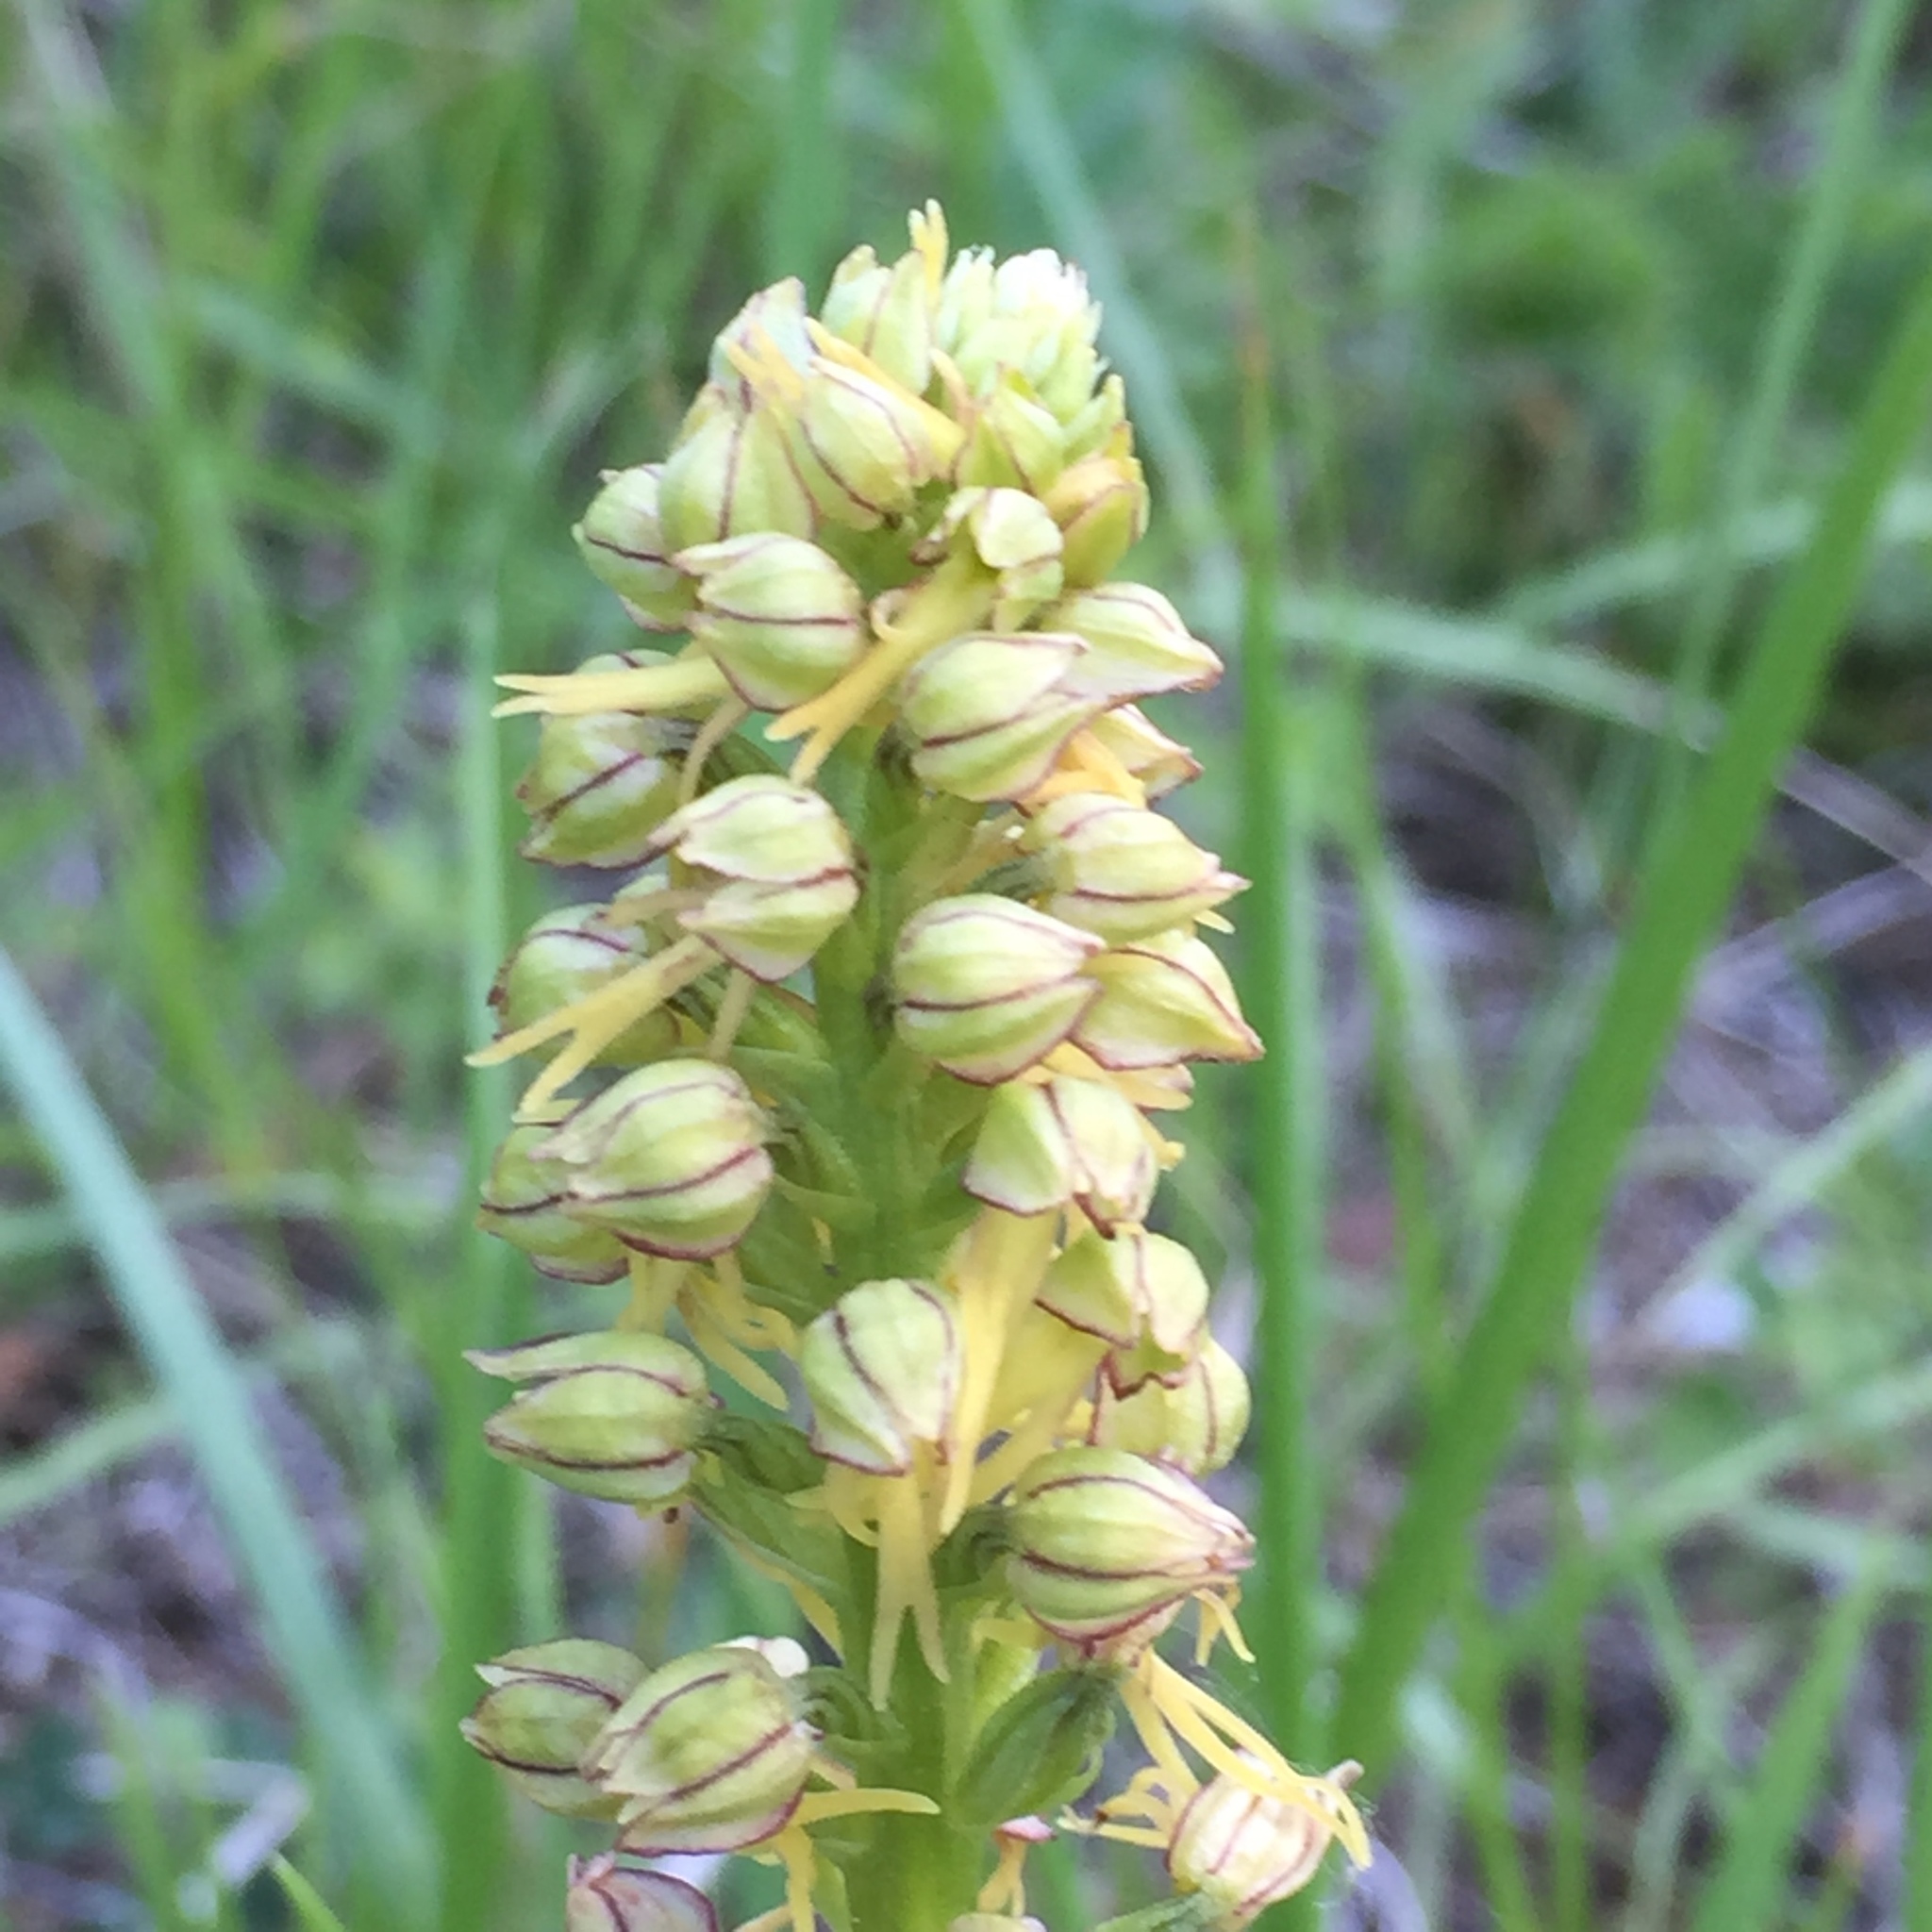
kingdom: Plantae
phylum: Tracheophyta
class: Liliopsida
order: Asparagales
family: Orchidaceae
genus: Orchis
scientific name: Orchis anthropophora
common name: Man orchid
